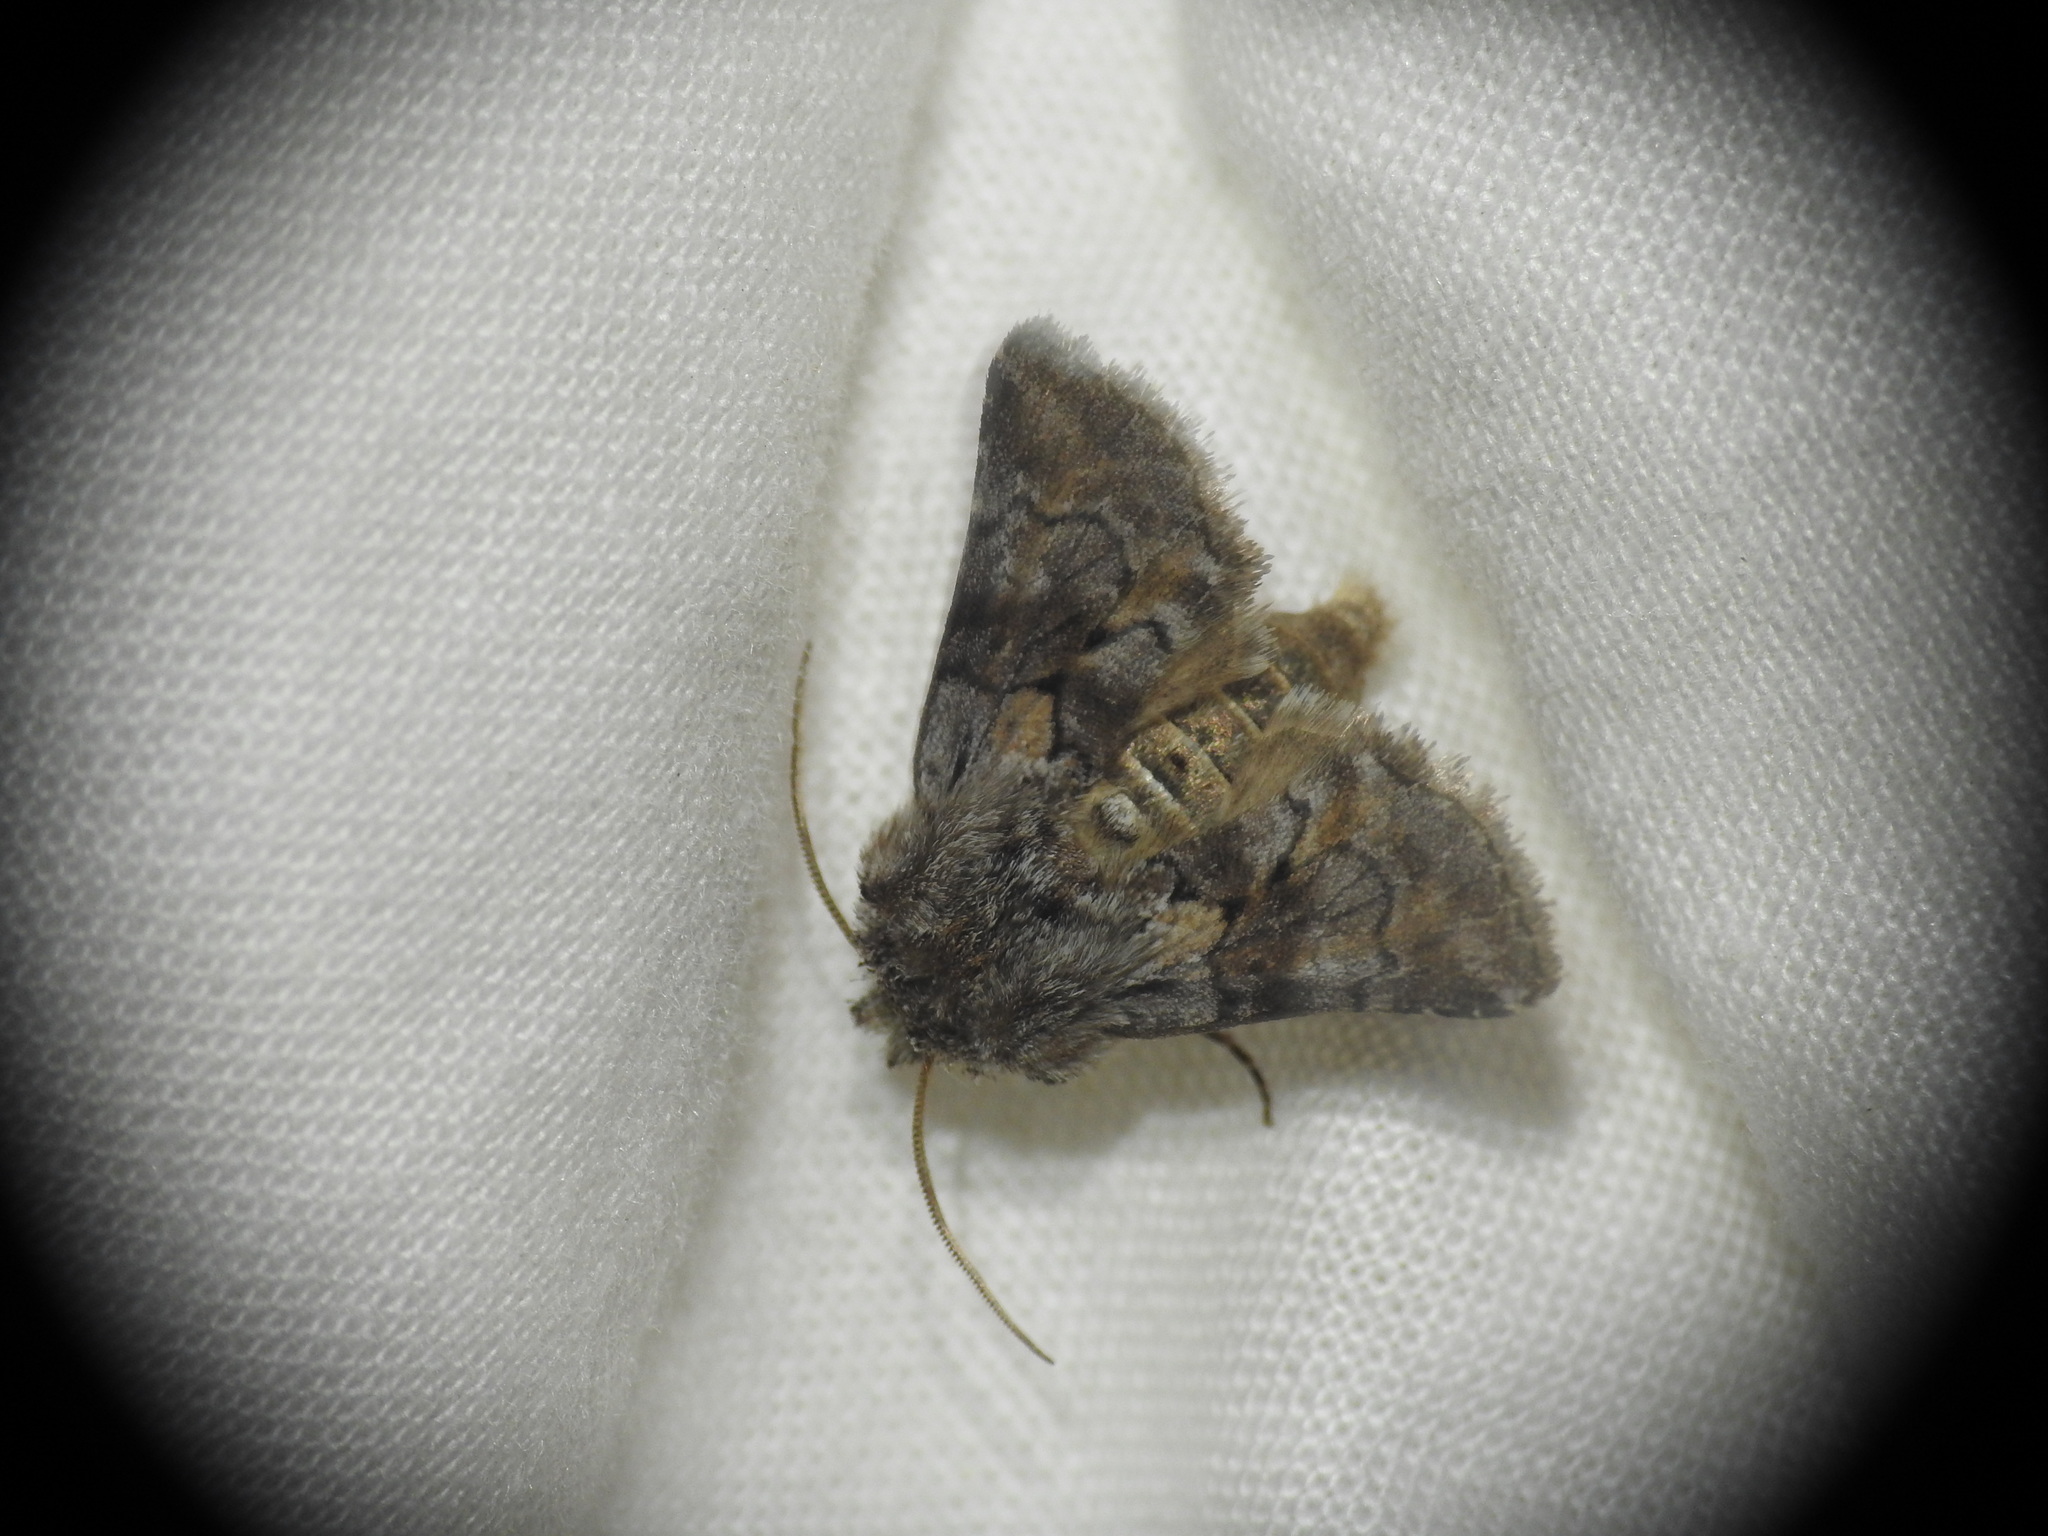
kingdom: Animalia
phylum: Arthropoda
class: Insecta
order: Lepidoptera
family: Noctuidae
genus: Cleonymia
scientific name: Cleonymia yvanii
